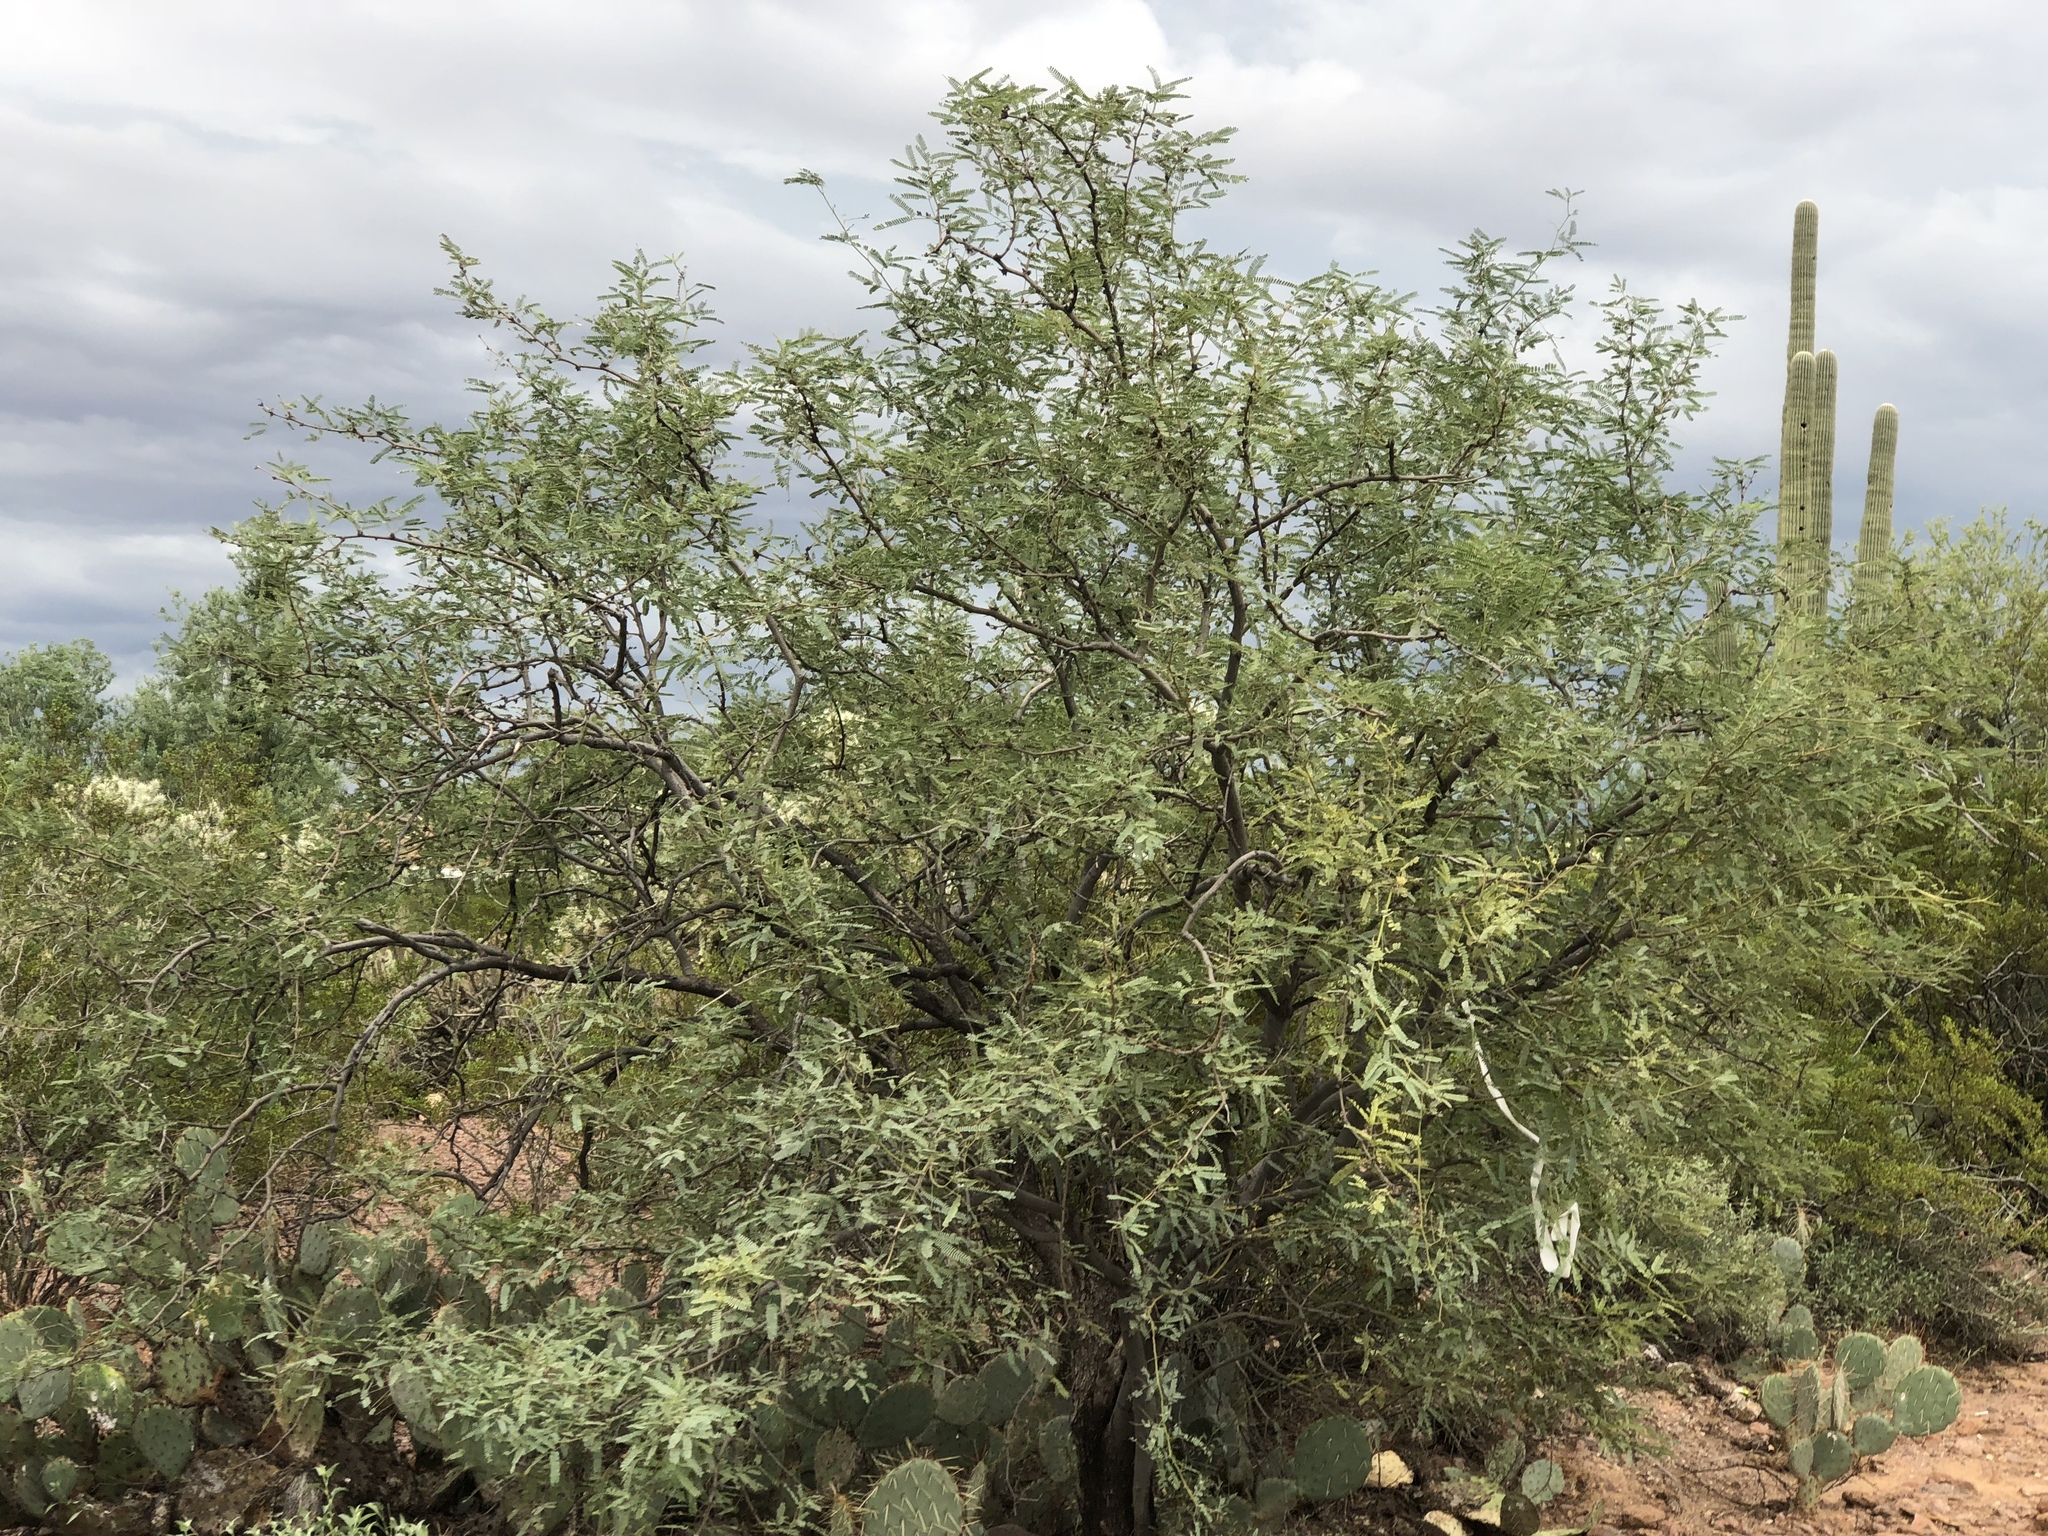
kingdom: Plantae
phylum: Tracheophyta
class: Magnoliopsida
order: Fabales
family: Fabaceae
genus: Prosopis
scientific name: Prosopis velutina
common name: Velvet mesquite
